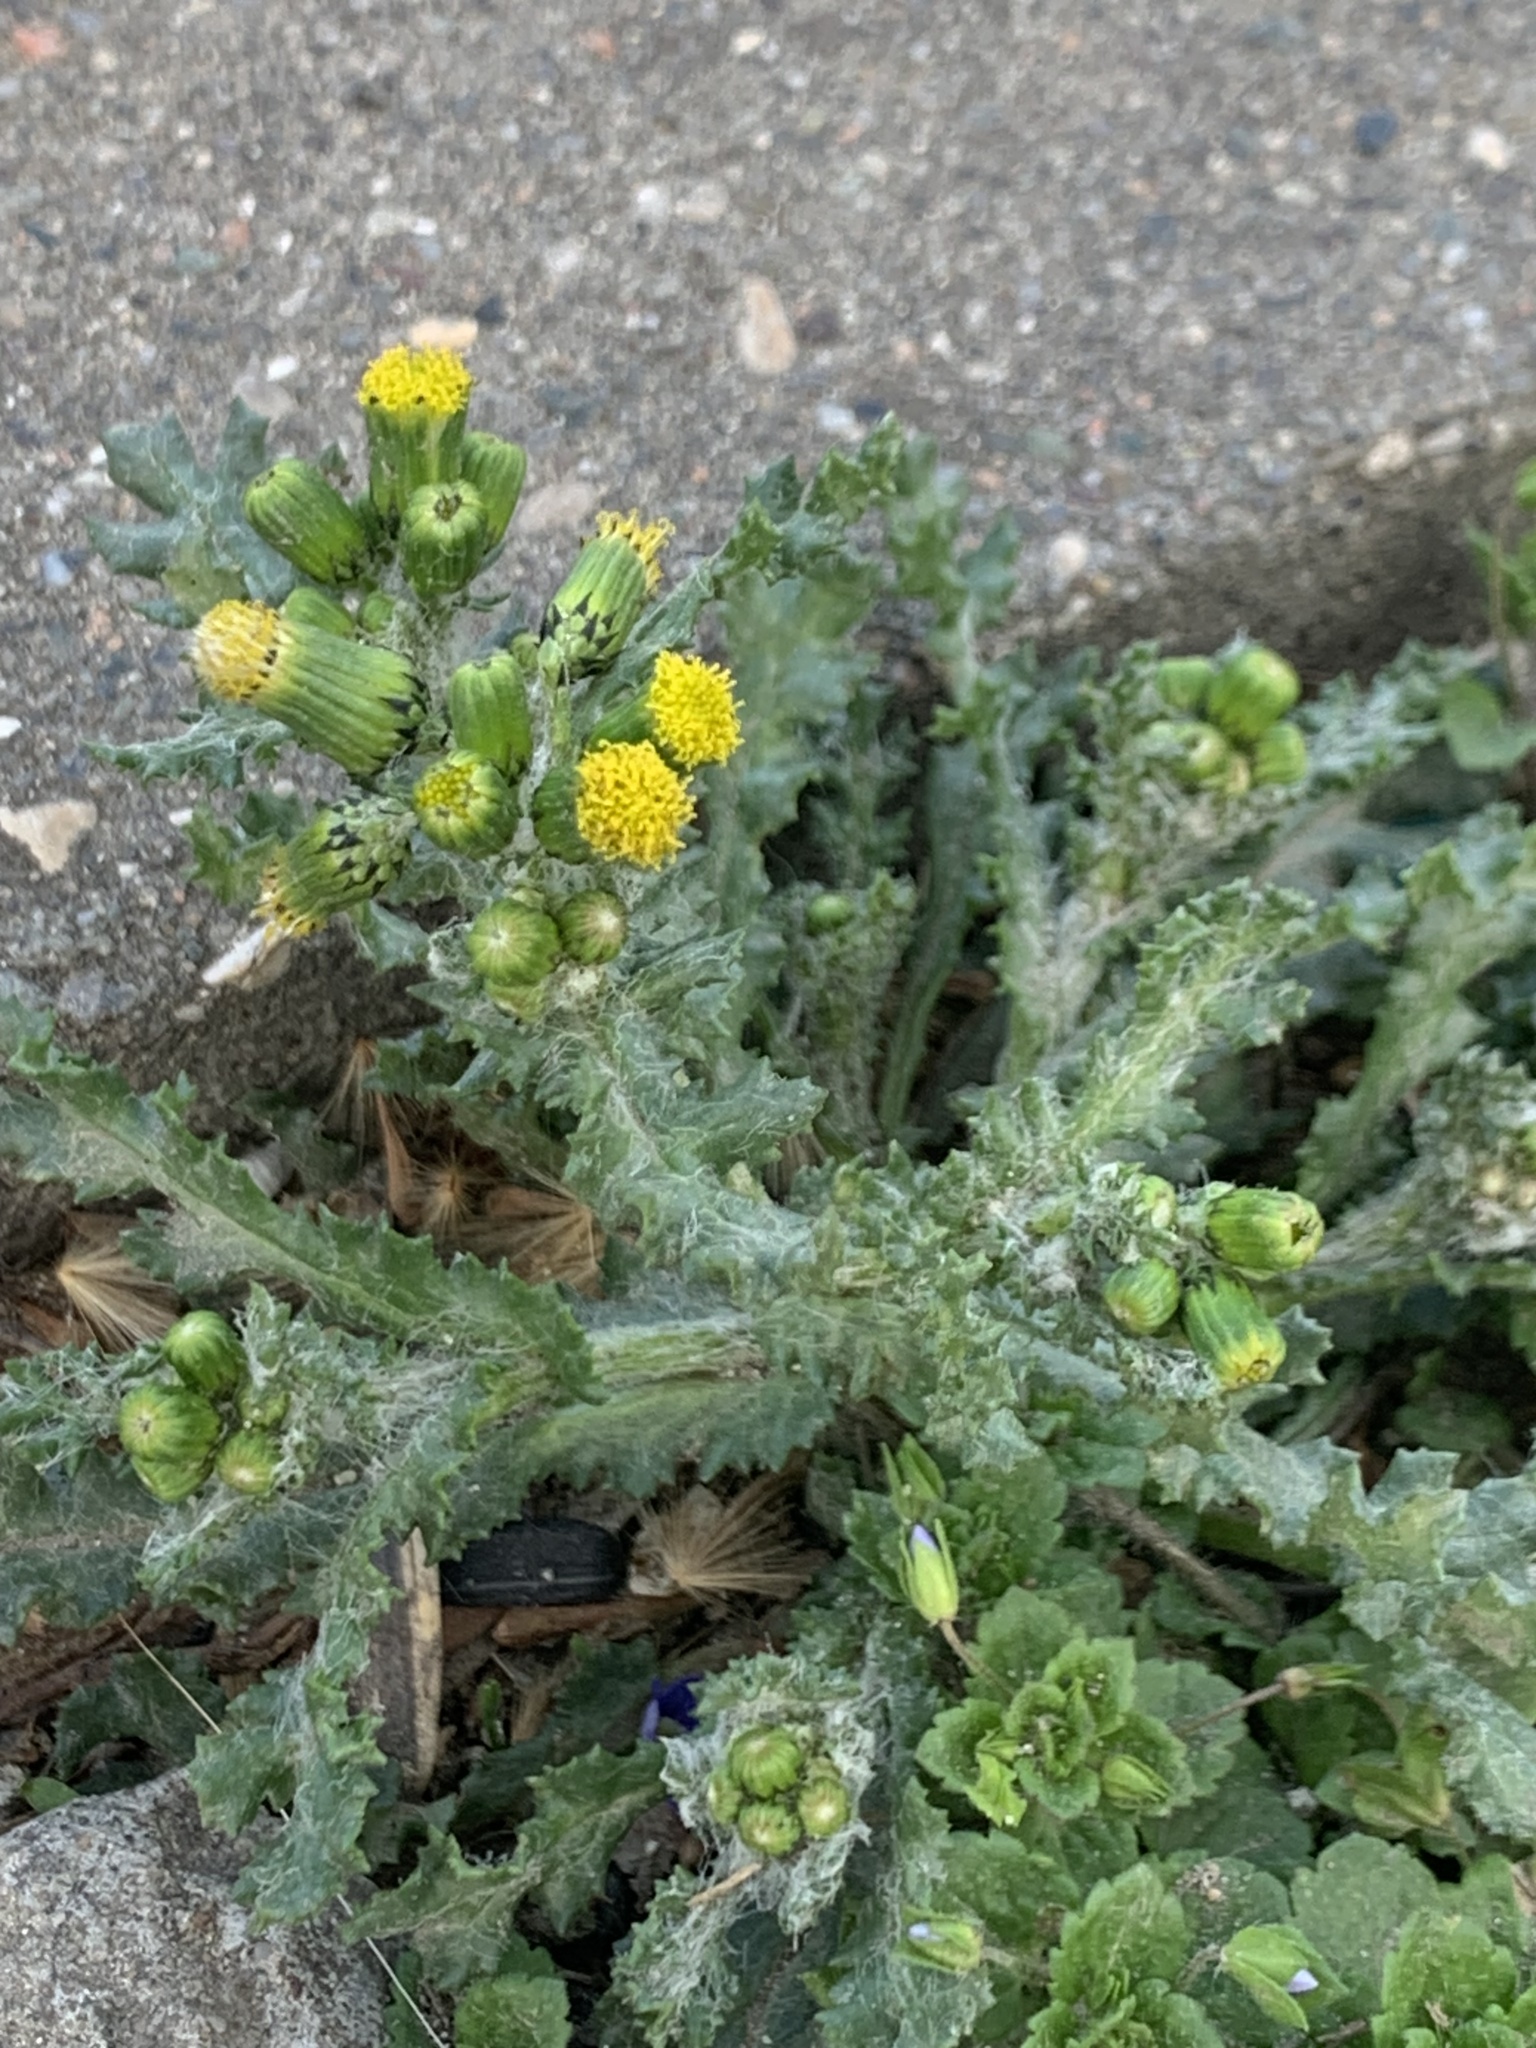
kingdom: Plantae
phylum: Tracheophyta
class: Magnoliopsida
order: Asterales
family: Asteraceae
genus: Senecio
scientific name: Senecio vulgaris
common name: Old-man-in-the-spring
